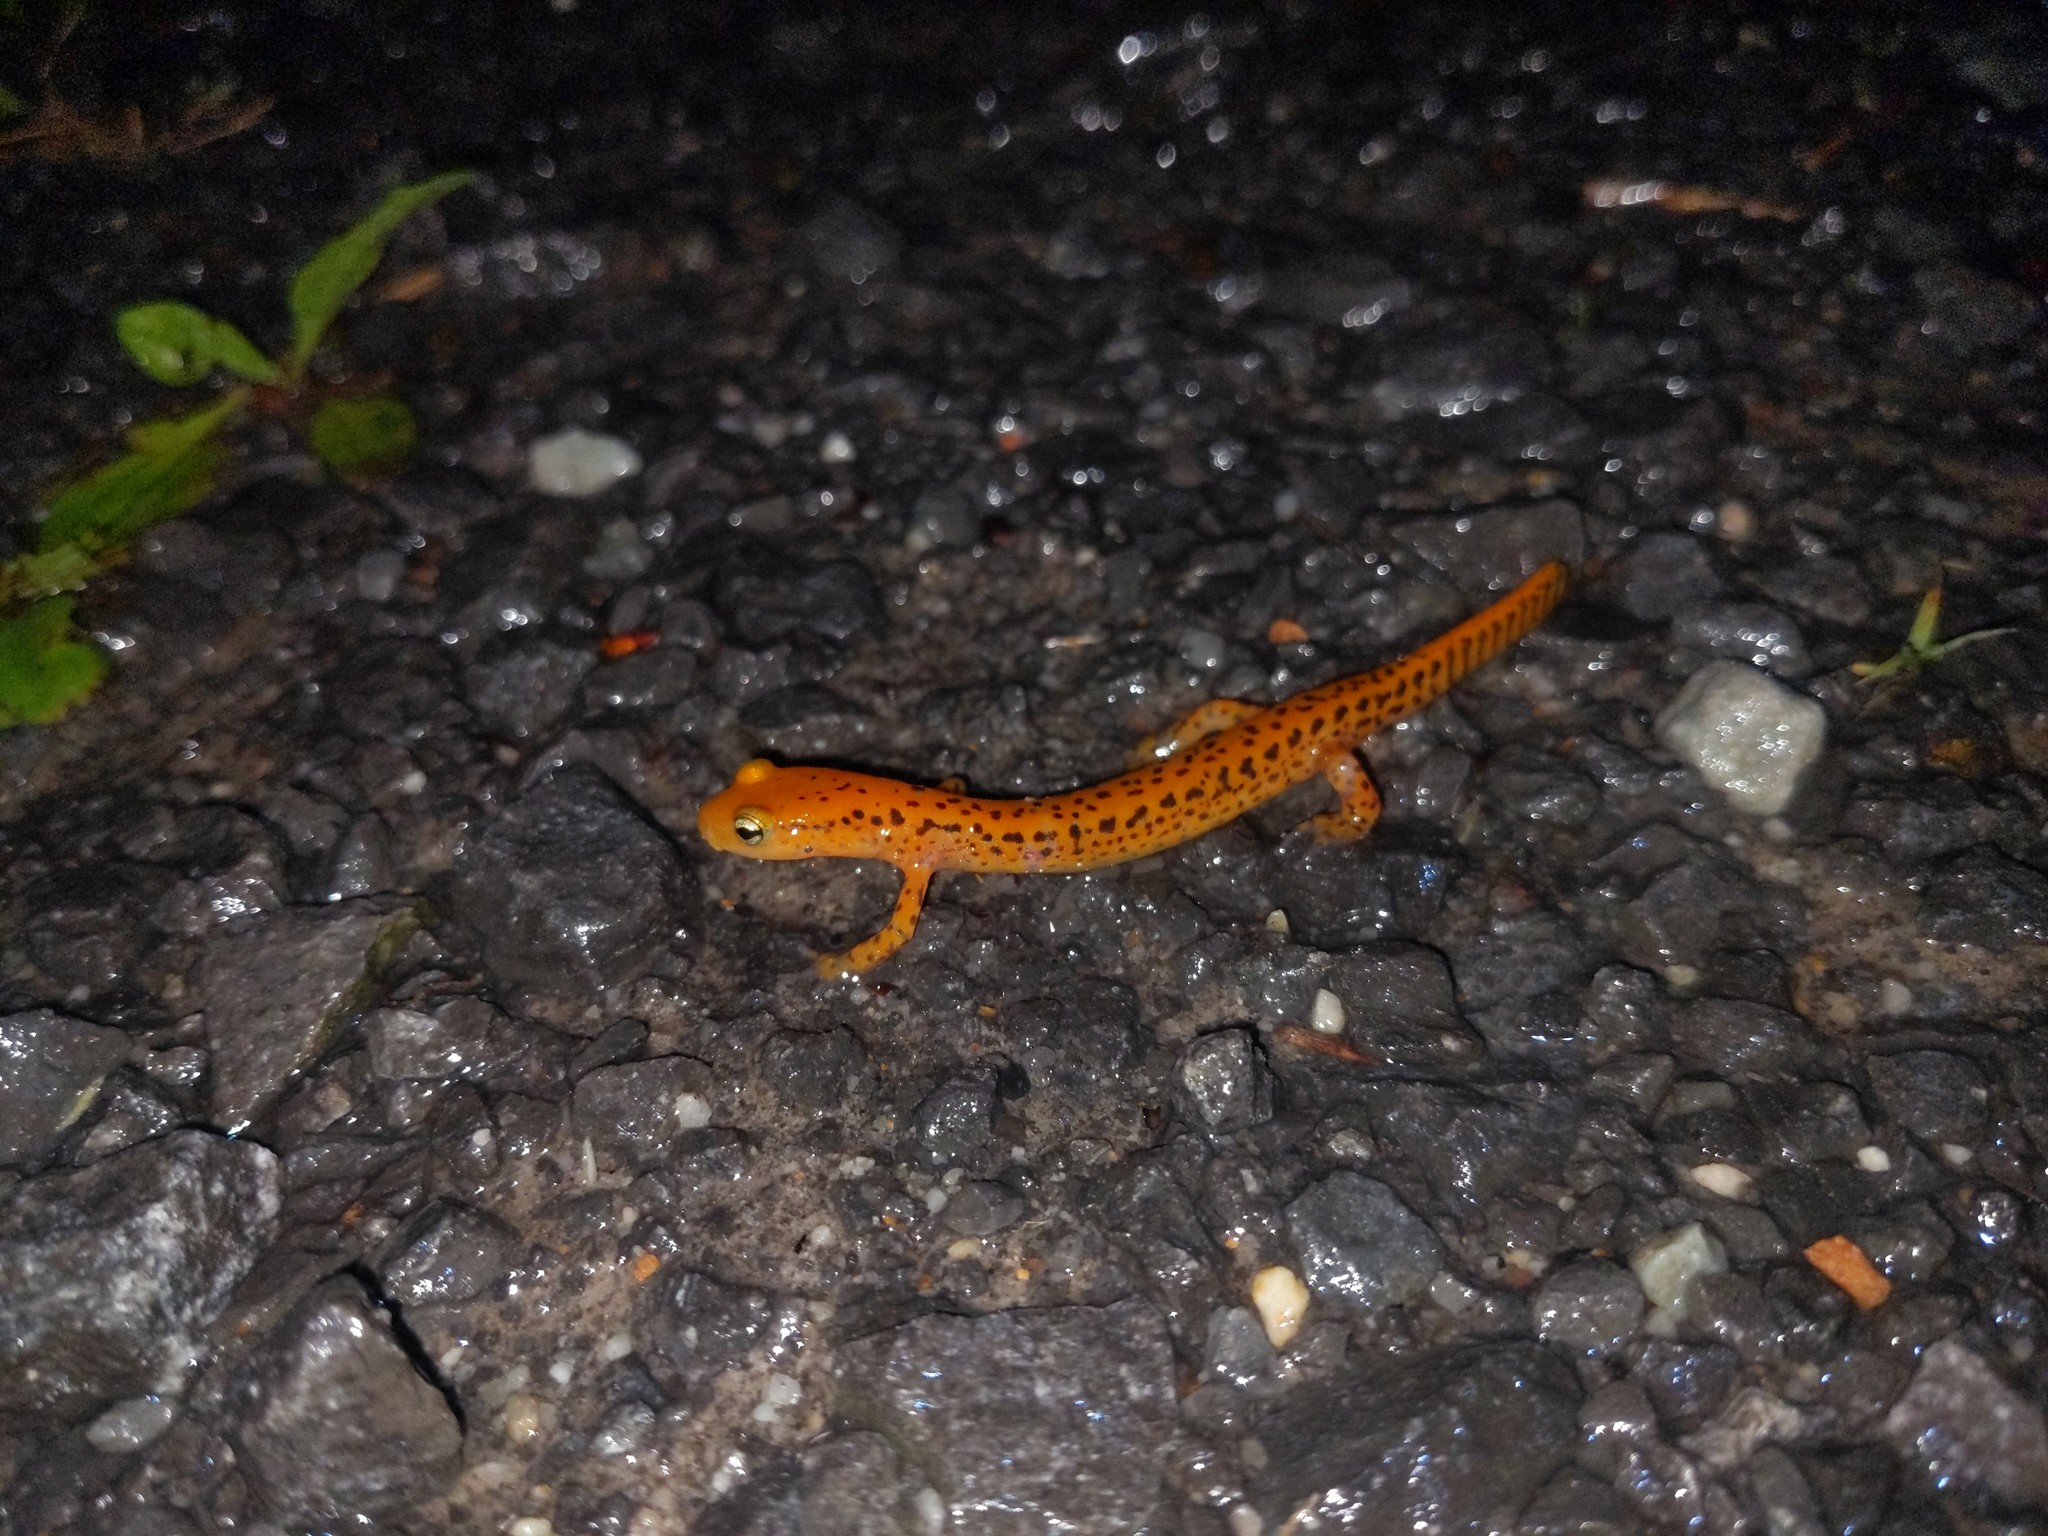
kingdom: Animalia
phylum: Chordata
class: Amphibia
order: Caudata
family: Plethodontidae
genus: Eurycea
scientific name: Eurycea longicauda
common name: Long-tailed salamander
